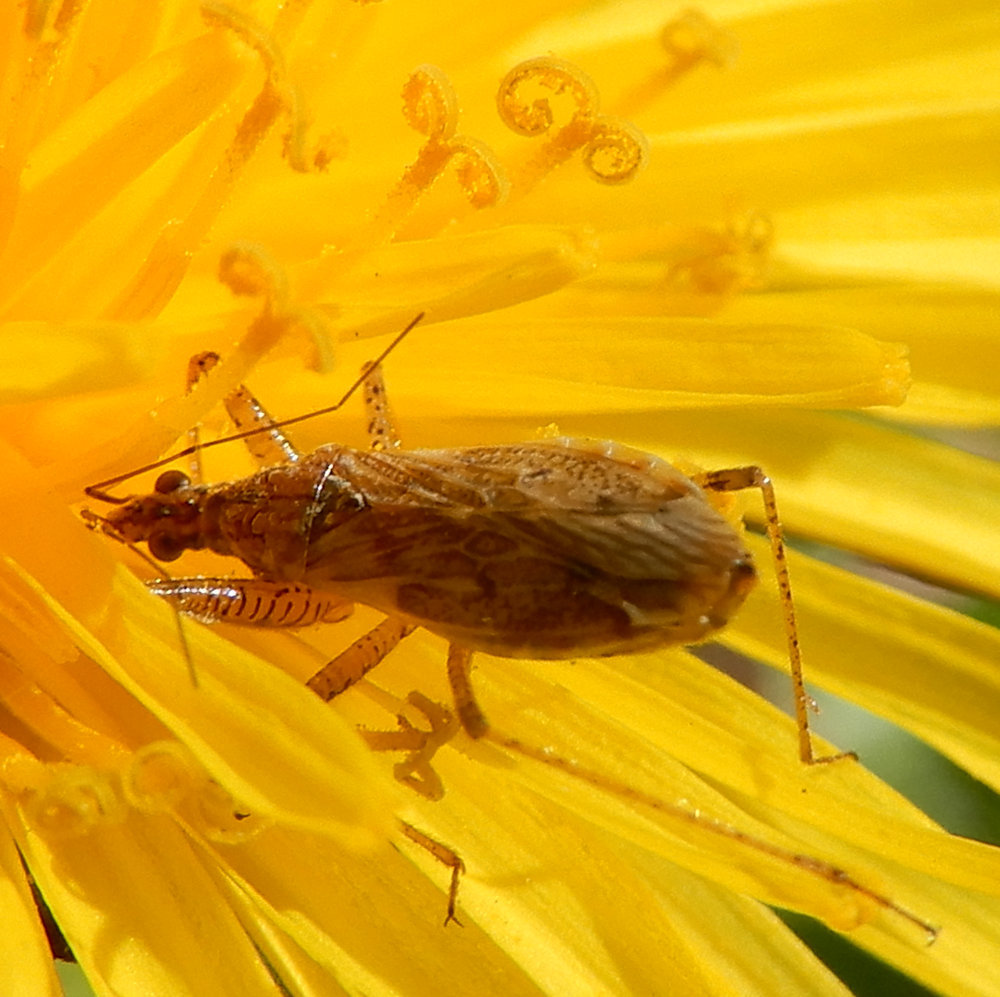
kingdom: Animalia
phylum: Arthropoda
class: Insecta
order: Hemiptera
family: Nabidae
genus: Nabis
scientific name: Nabis roseipennis
